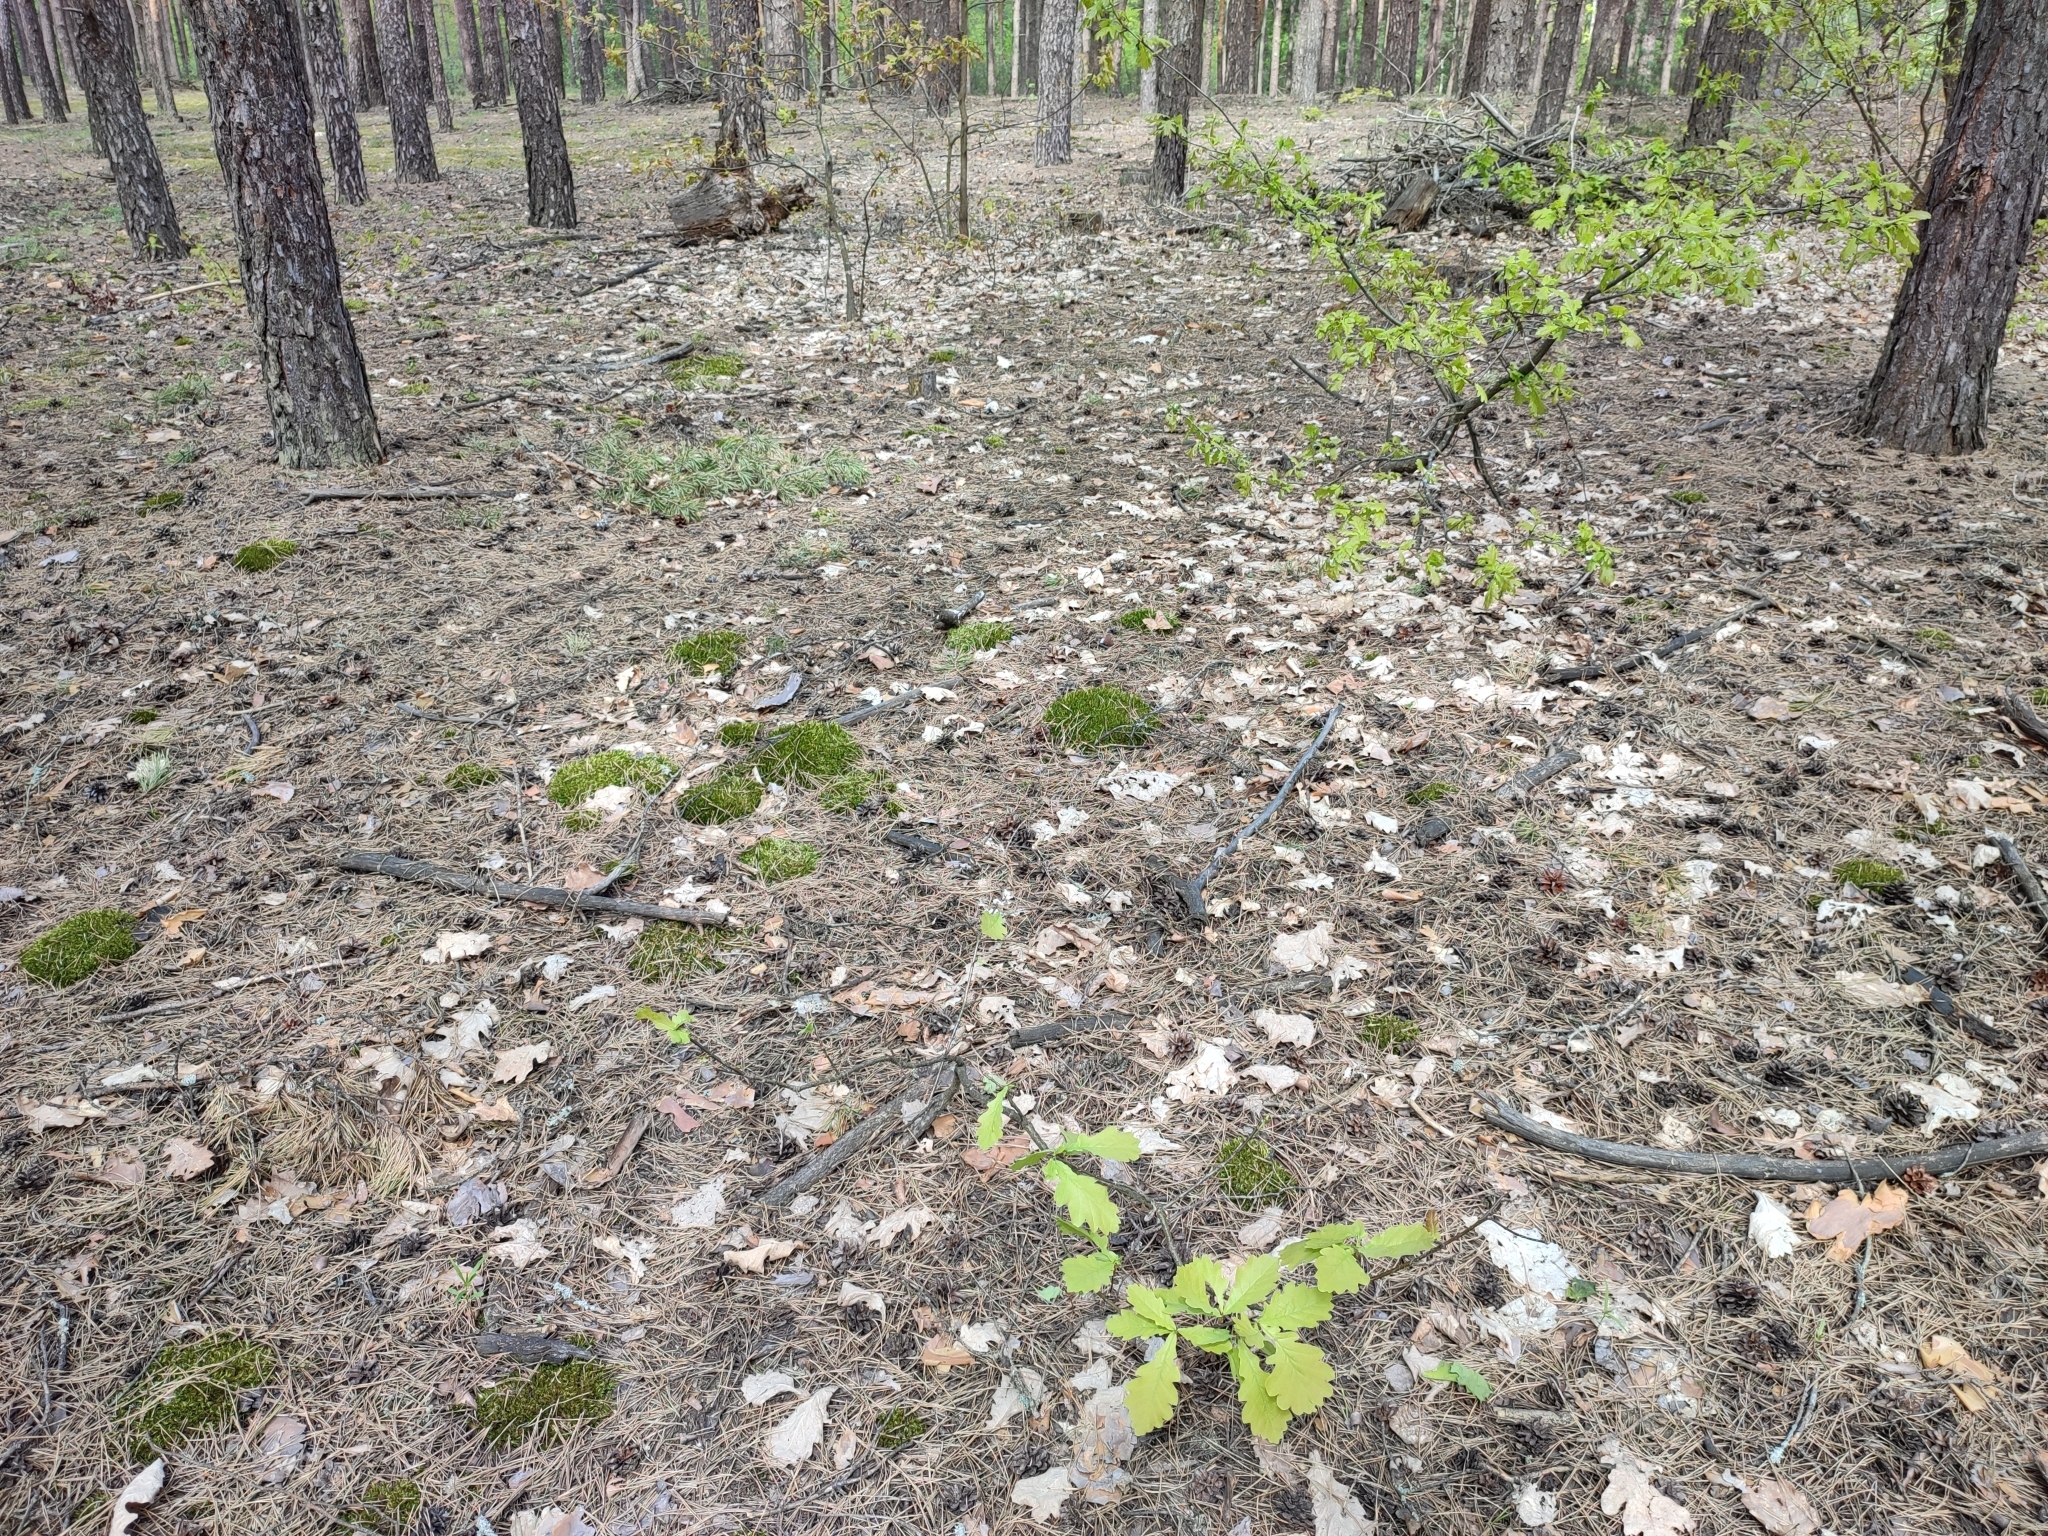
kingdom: Plantae
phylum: Tracheophyta
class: Magnoliopsida
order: Fagales
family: Fagaceae
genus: Quercus
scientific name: Quercus robur
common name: Pedunculate oak
